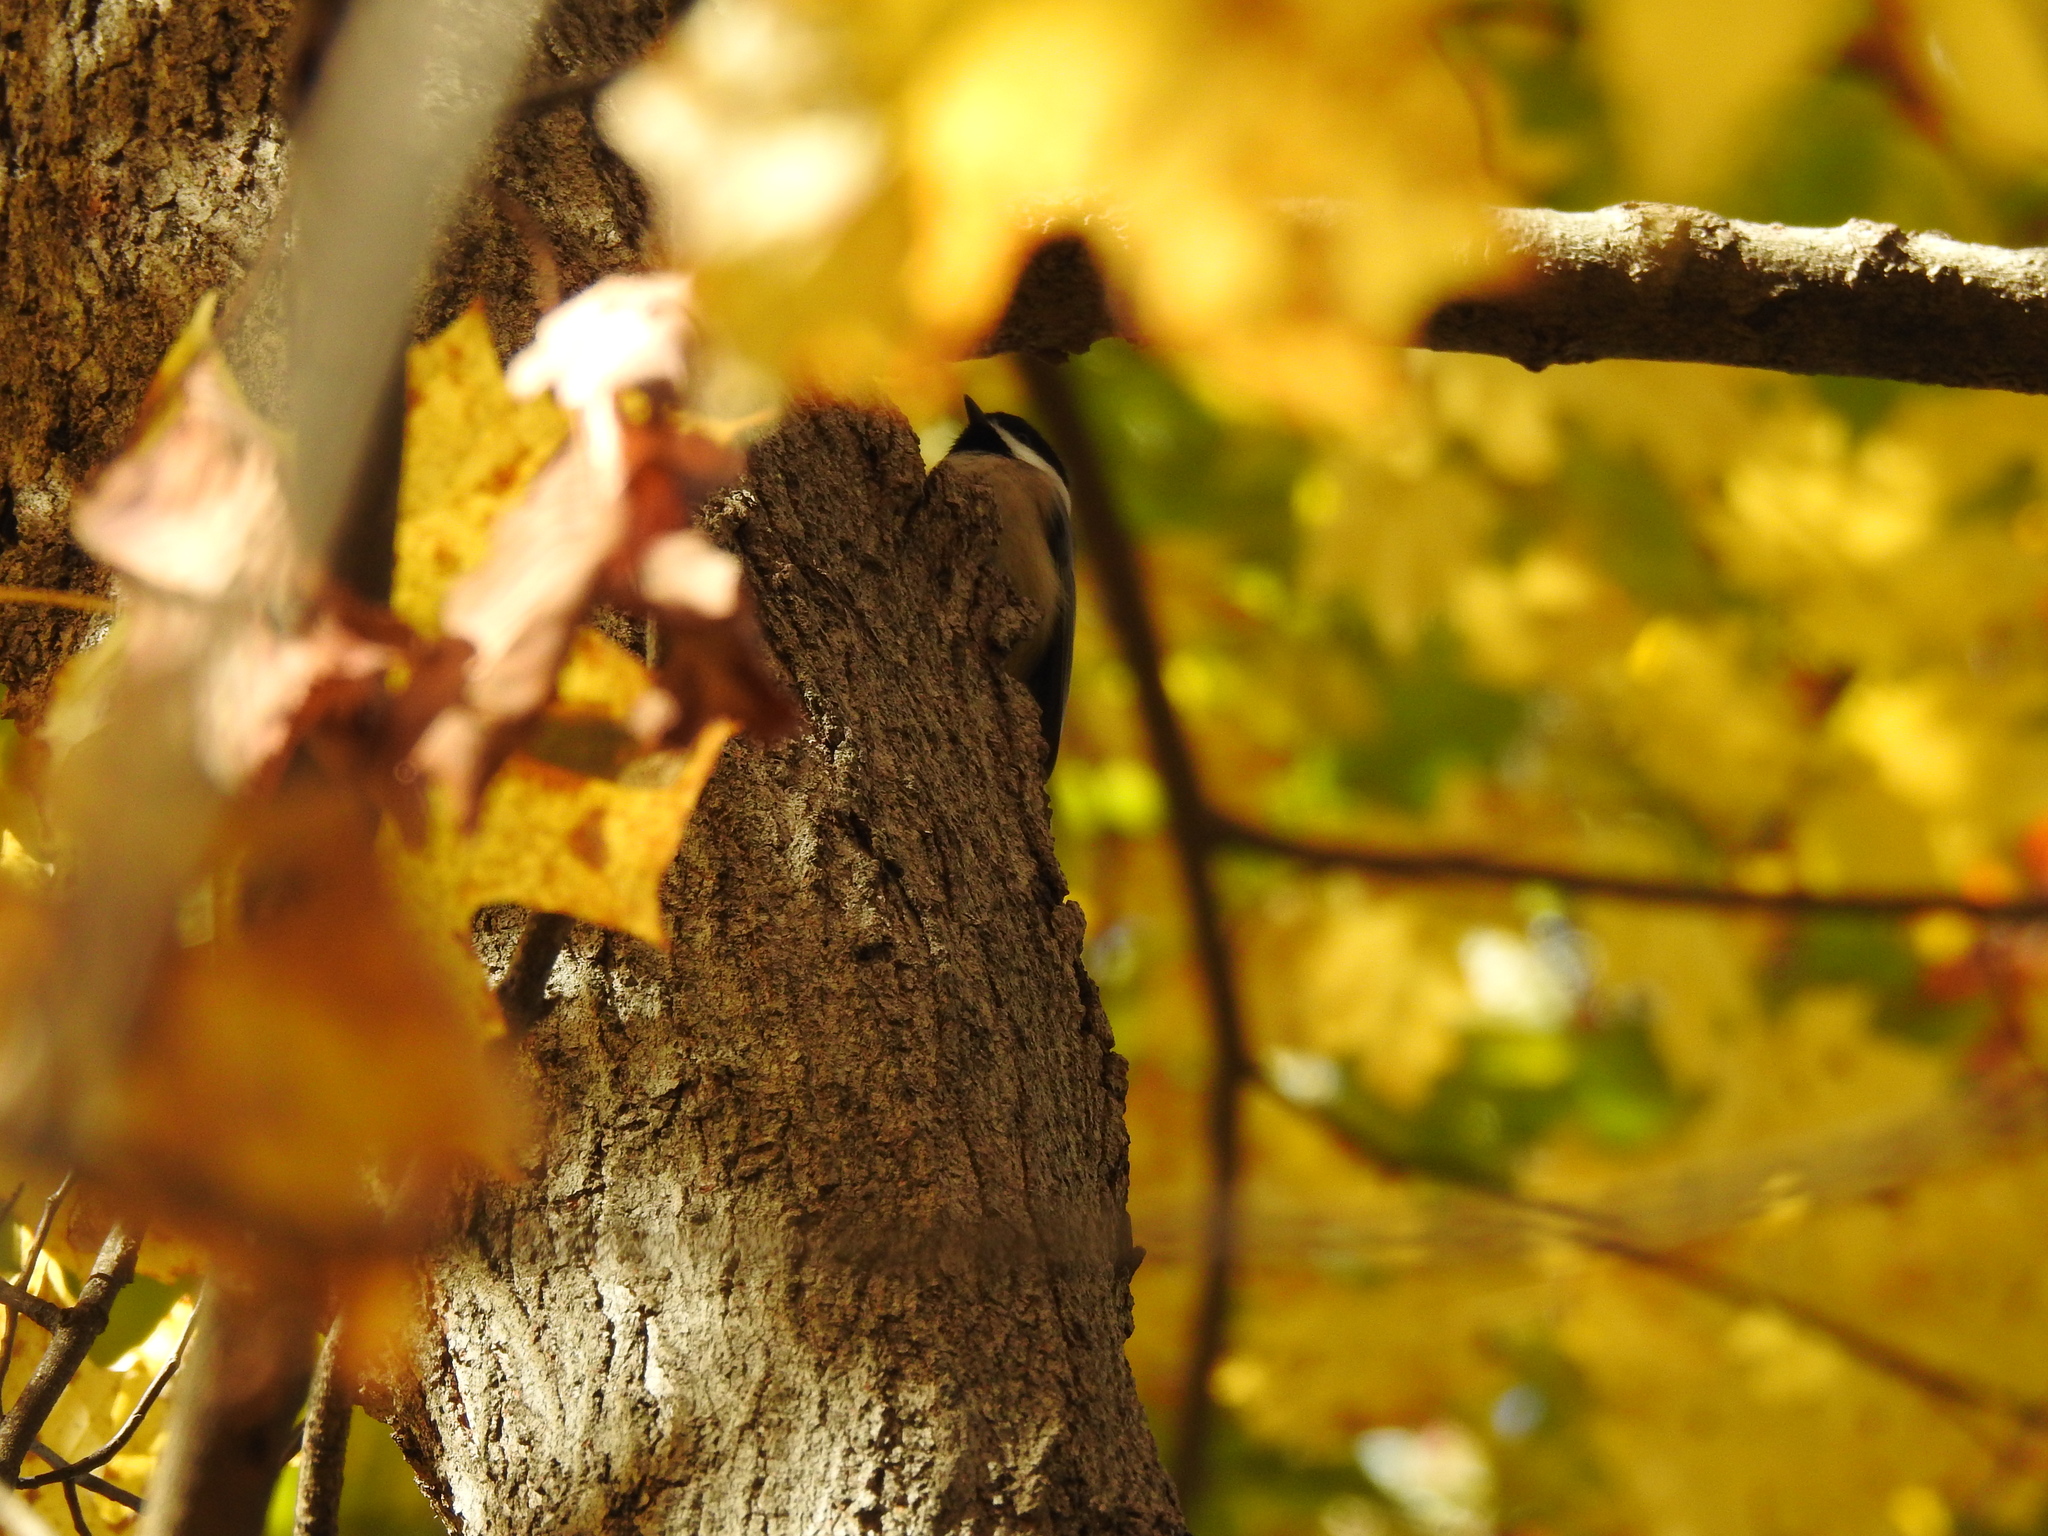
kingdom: Animalia
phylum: Chordata
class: Aves
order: Passeriformes
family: Paridae
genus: Poecile
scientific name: Poecile carolinensis
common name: Carolina chickadee
